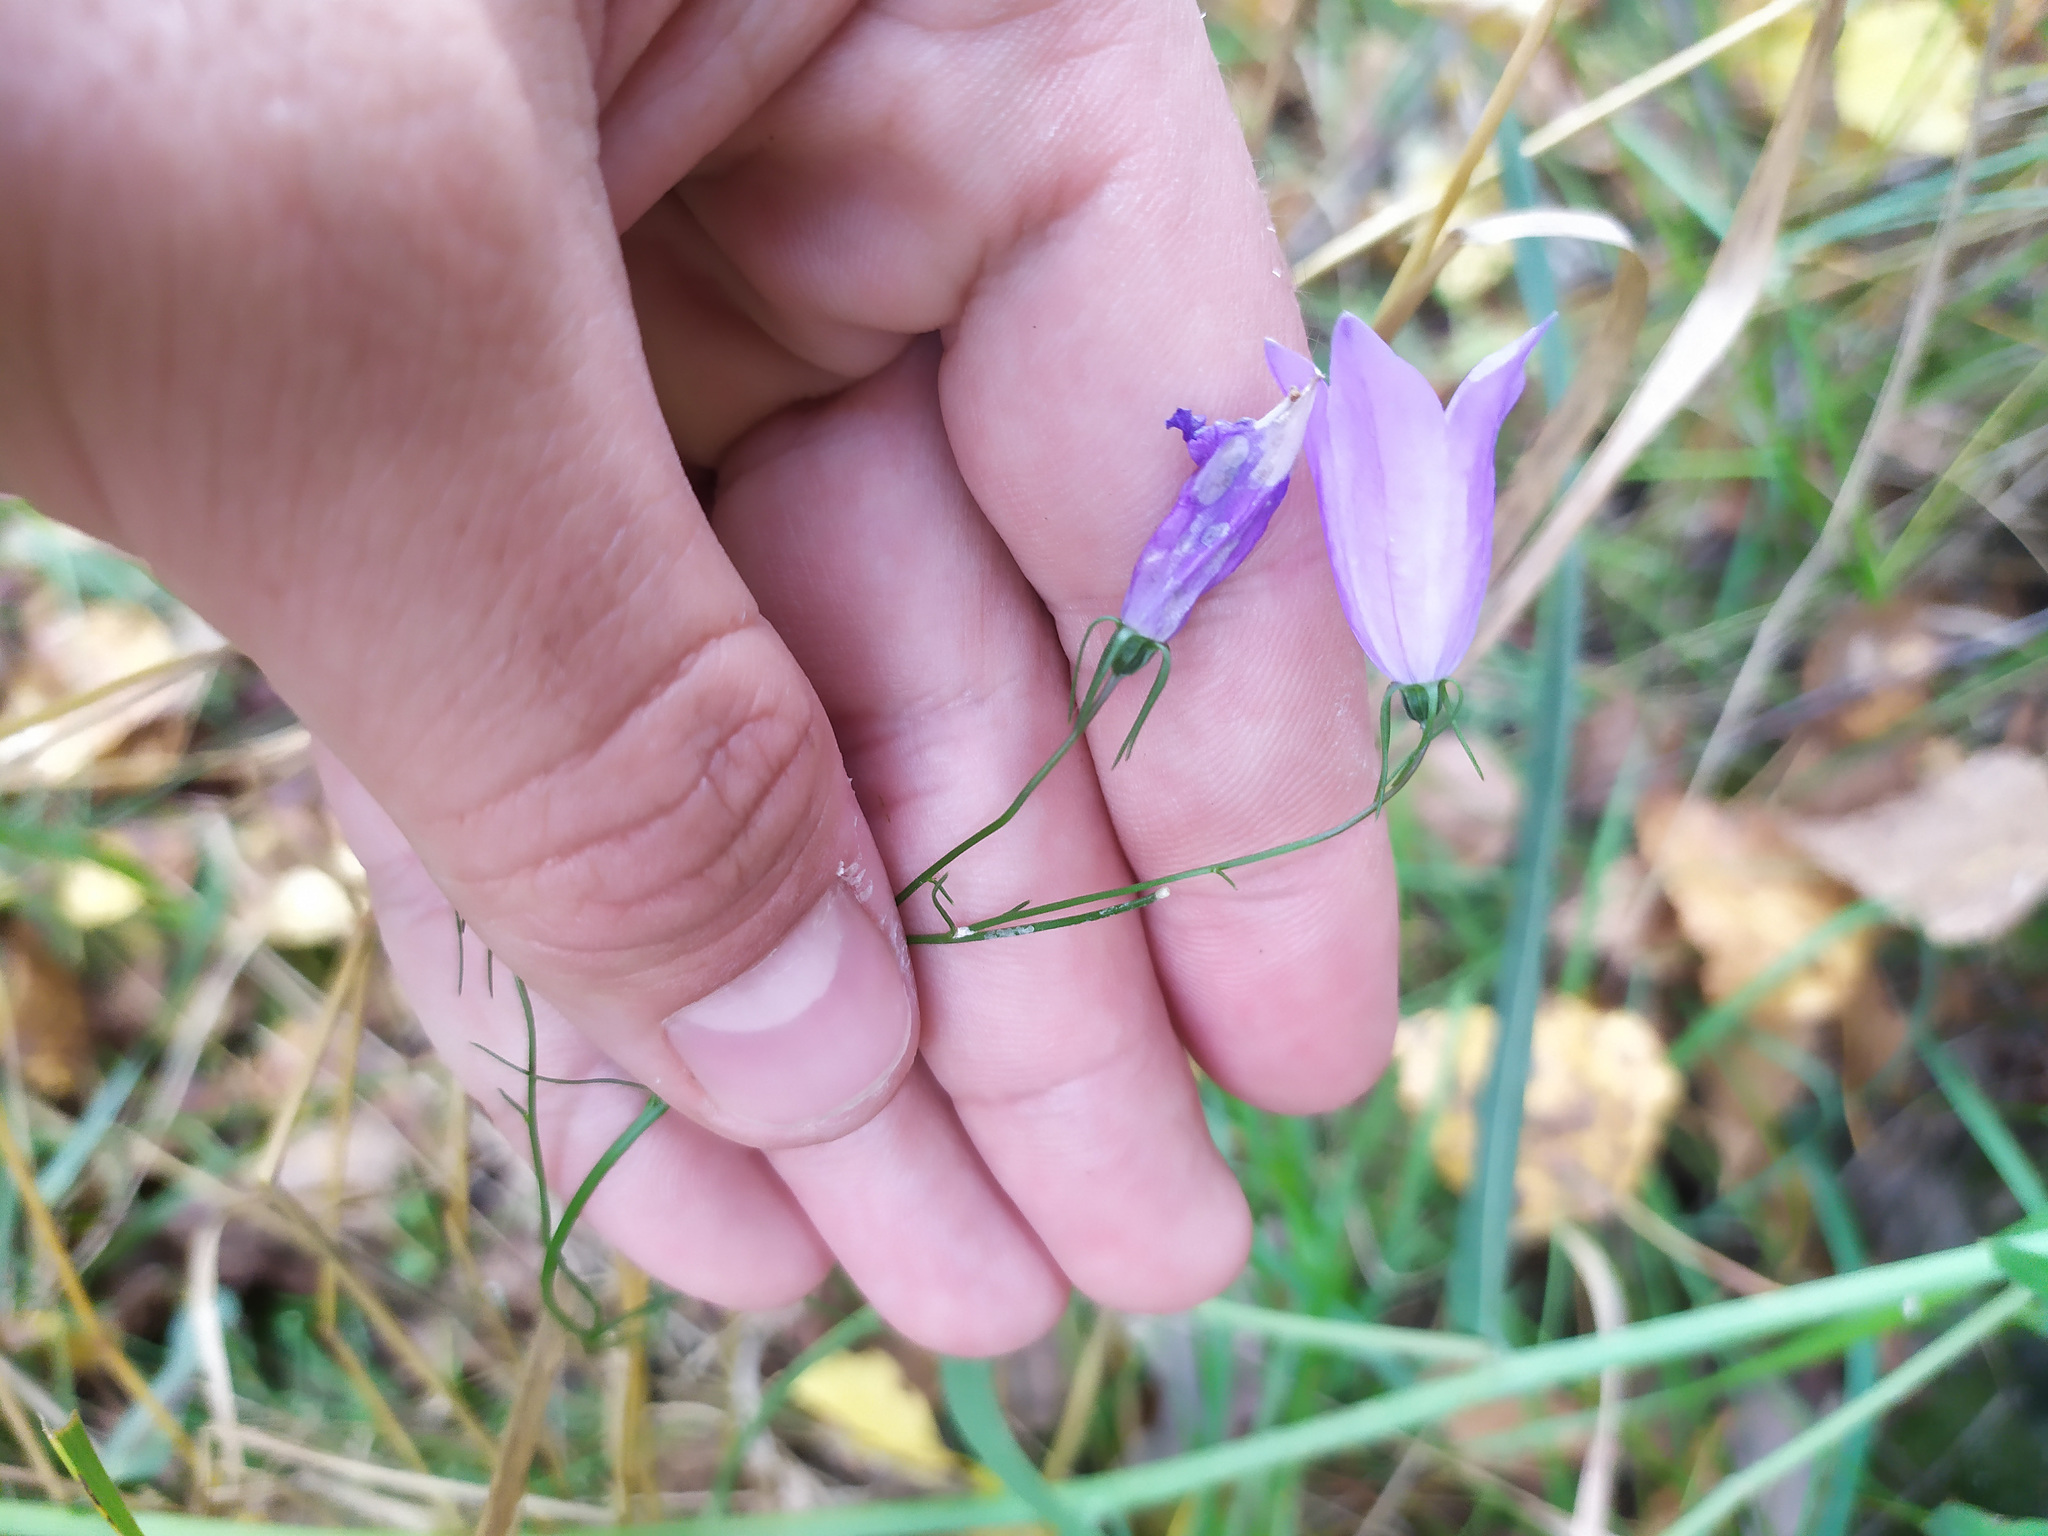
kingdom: Plantae
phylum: Tracheophyta
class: Magnoliopsida
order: Asterales
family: Campanulaceae
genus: Campanula
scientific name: Campanula rotundifolia
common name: Harebell
